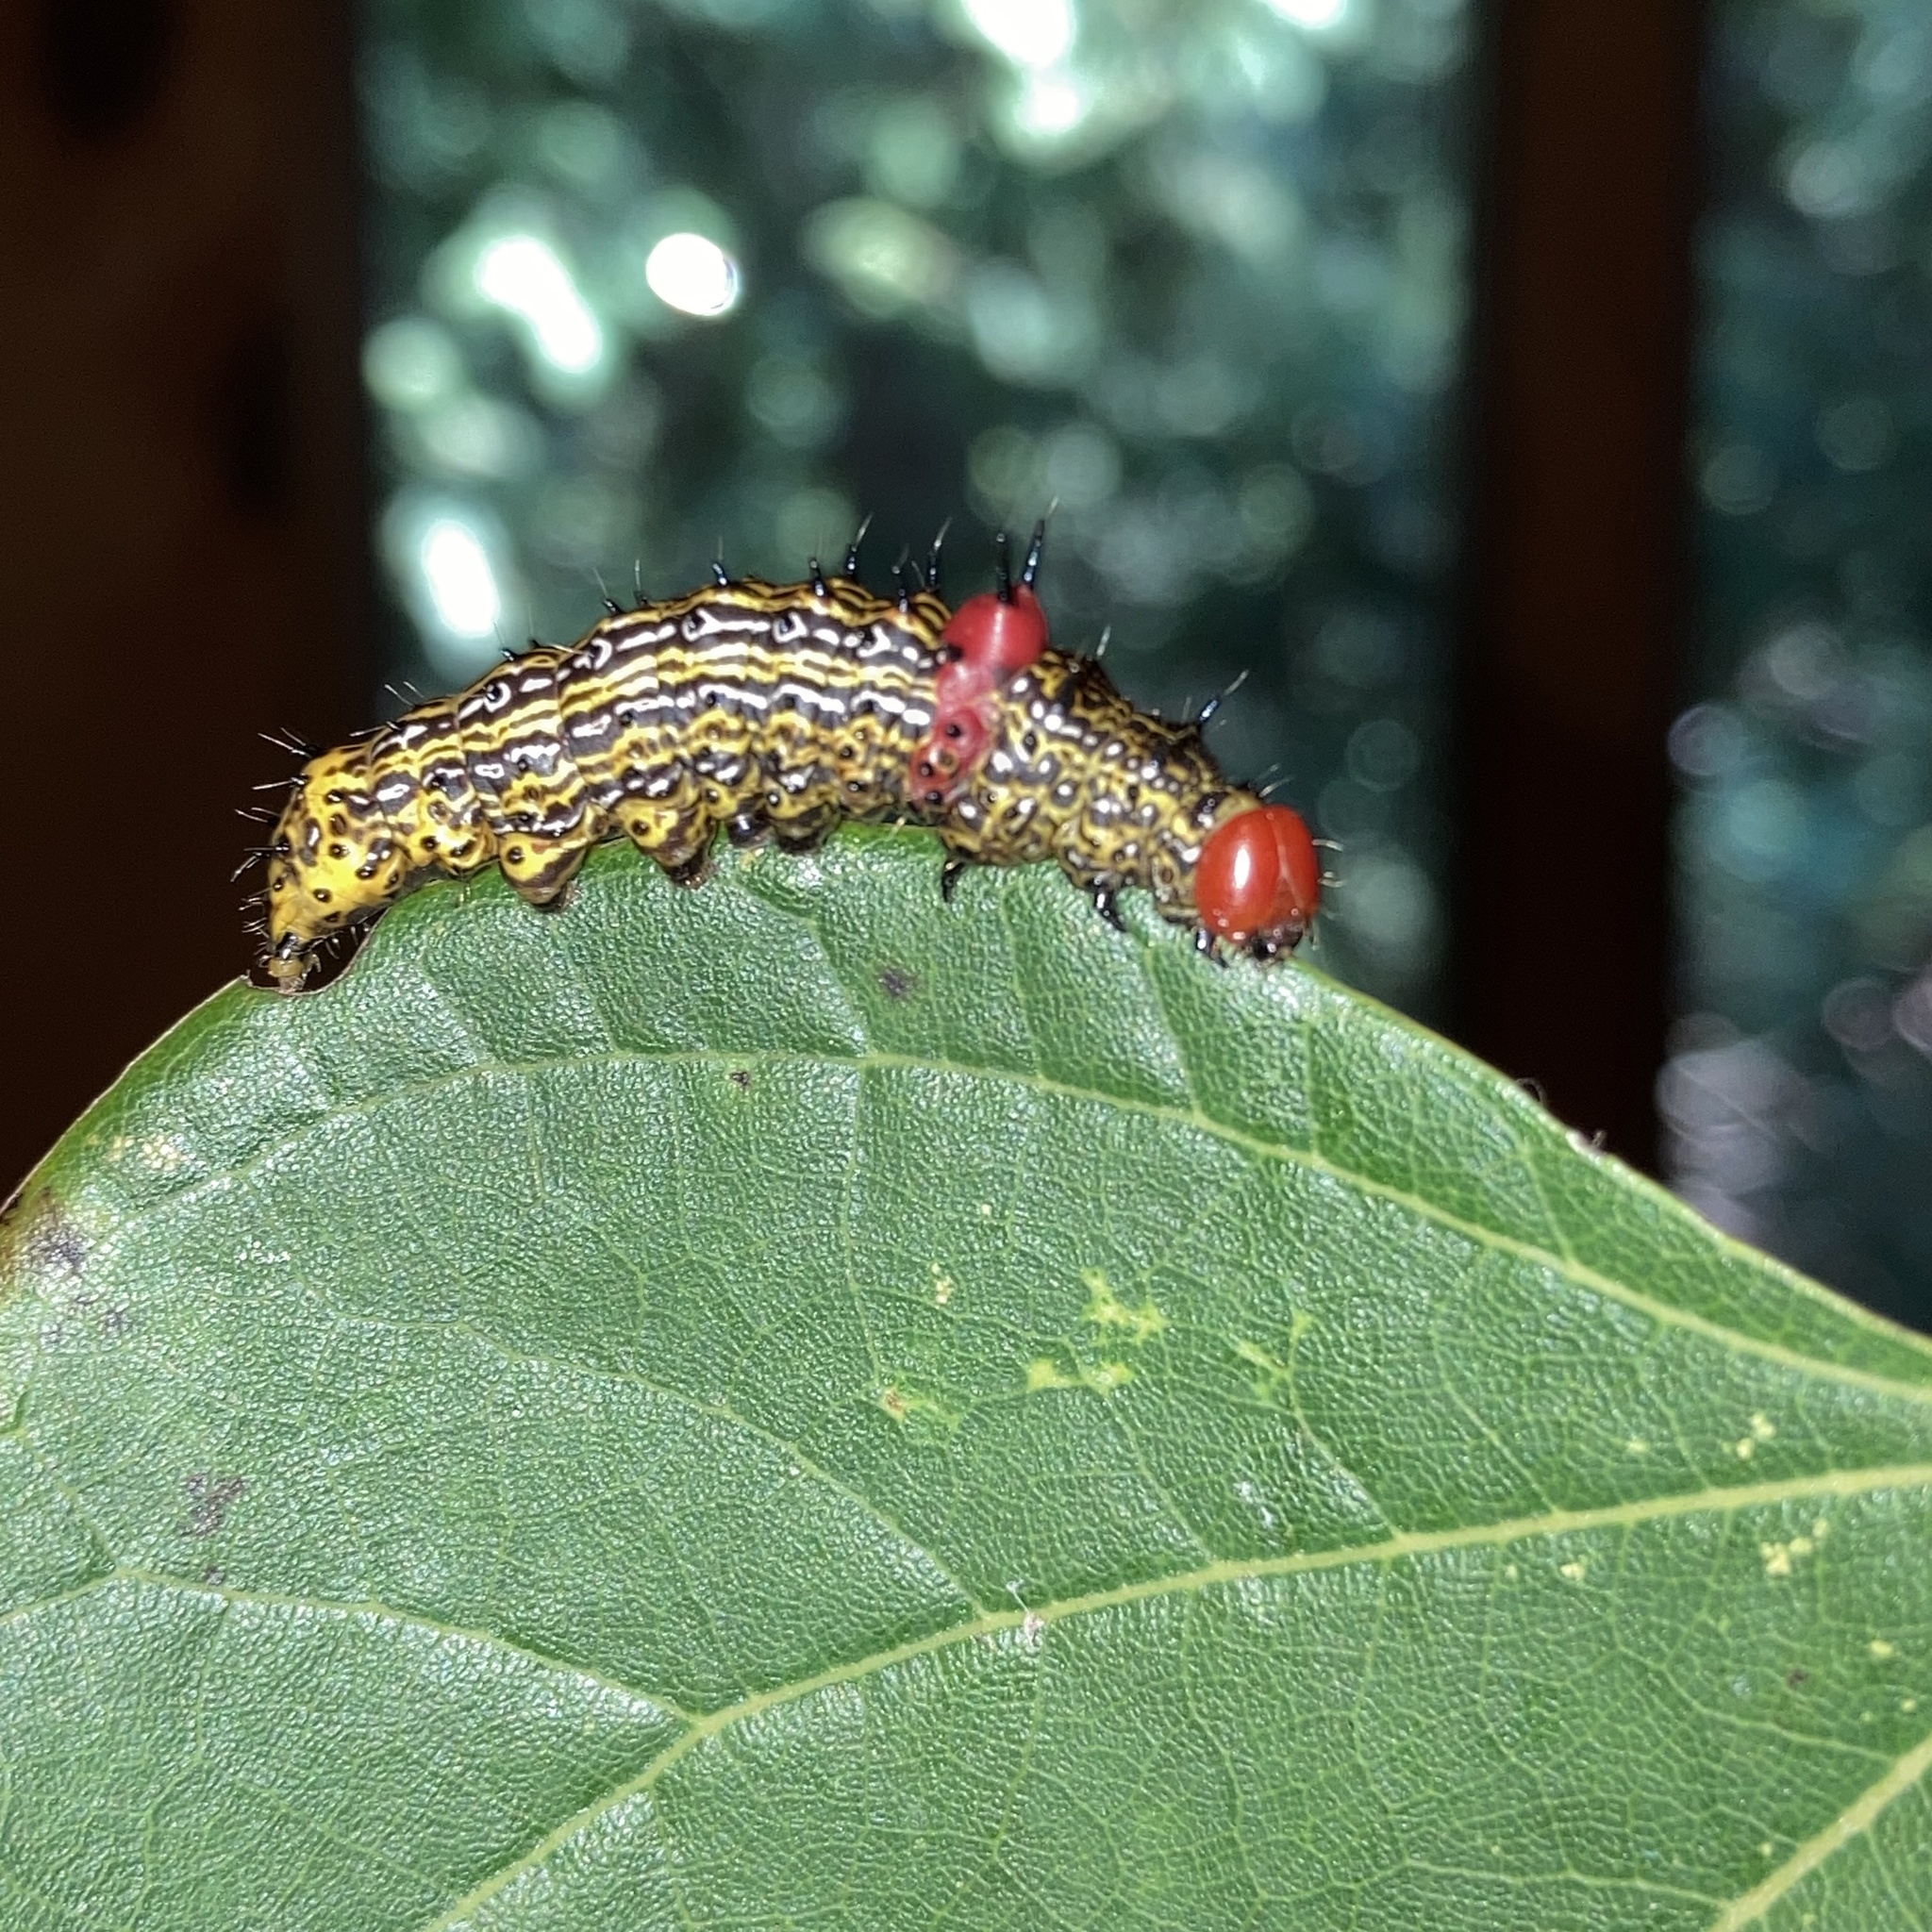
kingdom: Animalia
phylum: Arthropoda
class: Insecta
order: Lepidoptera
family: Notodontidae
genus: Schizura
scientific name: Schizura
